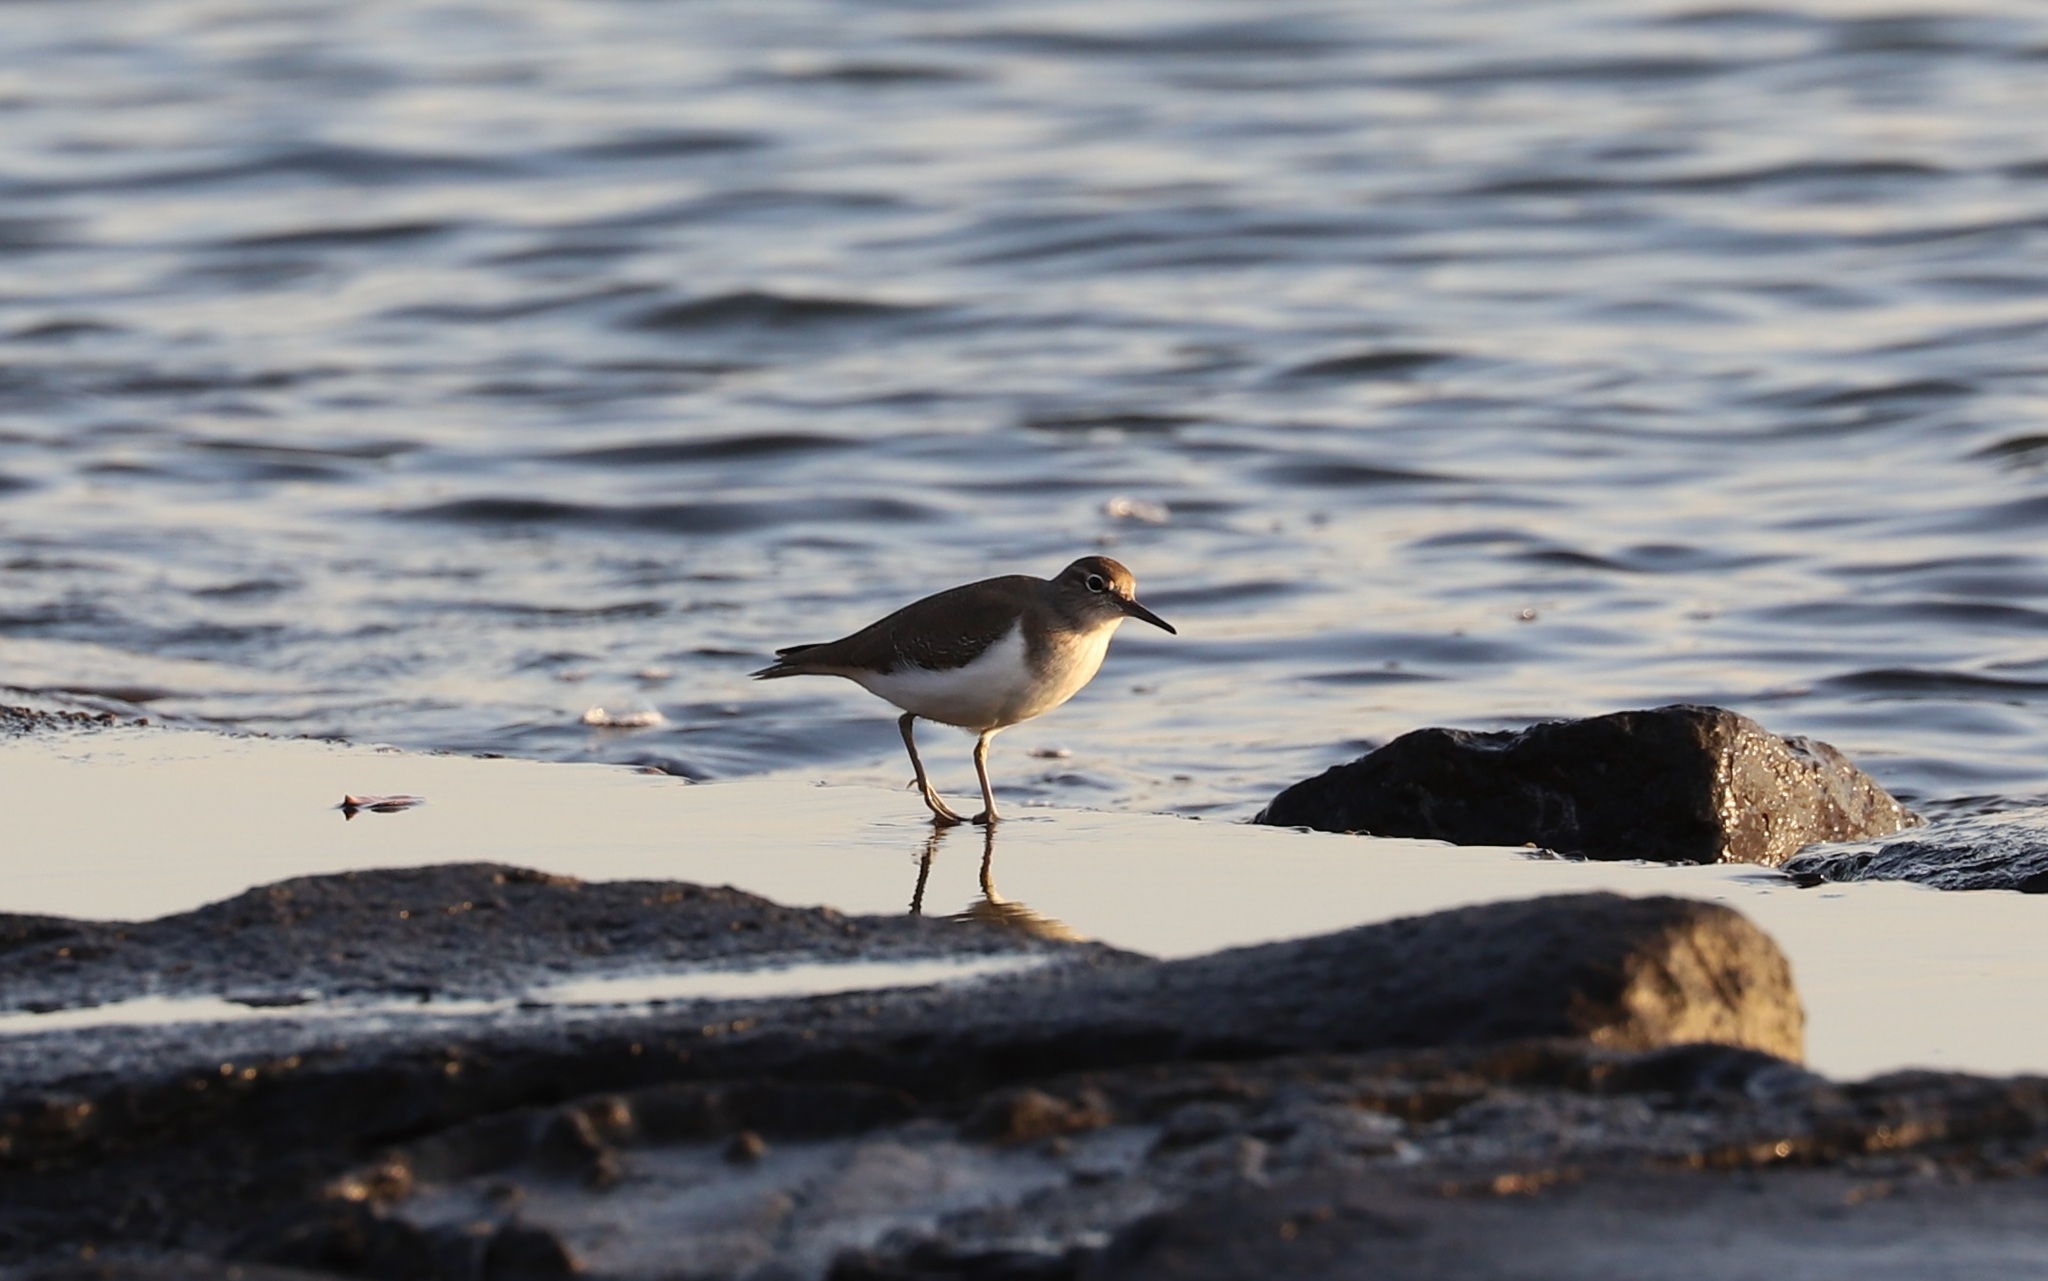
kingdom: Animalia
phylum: Chordata
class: Aves
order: Charadriiformes
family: Scolopacidae
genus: Actitis
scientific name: Actitis hypoleucos
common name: Common sandpiper
